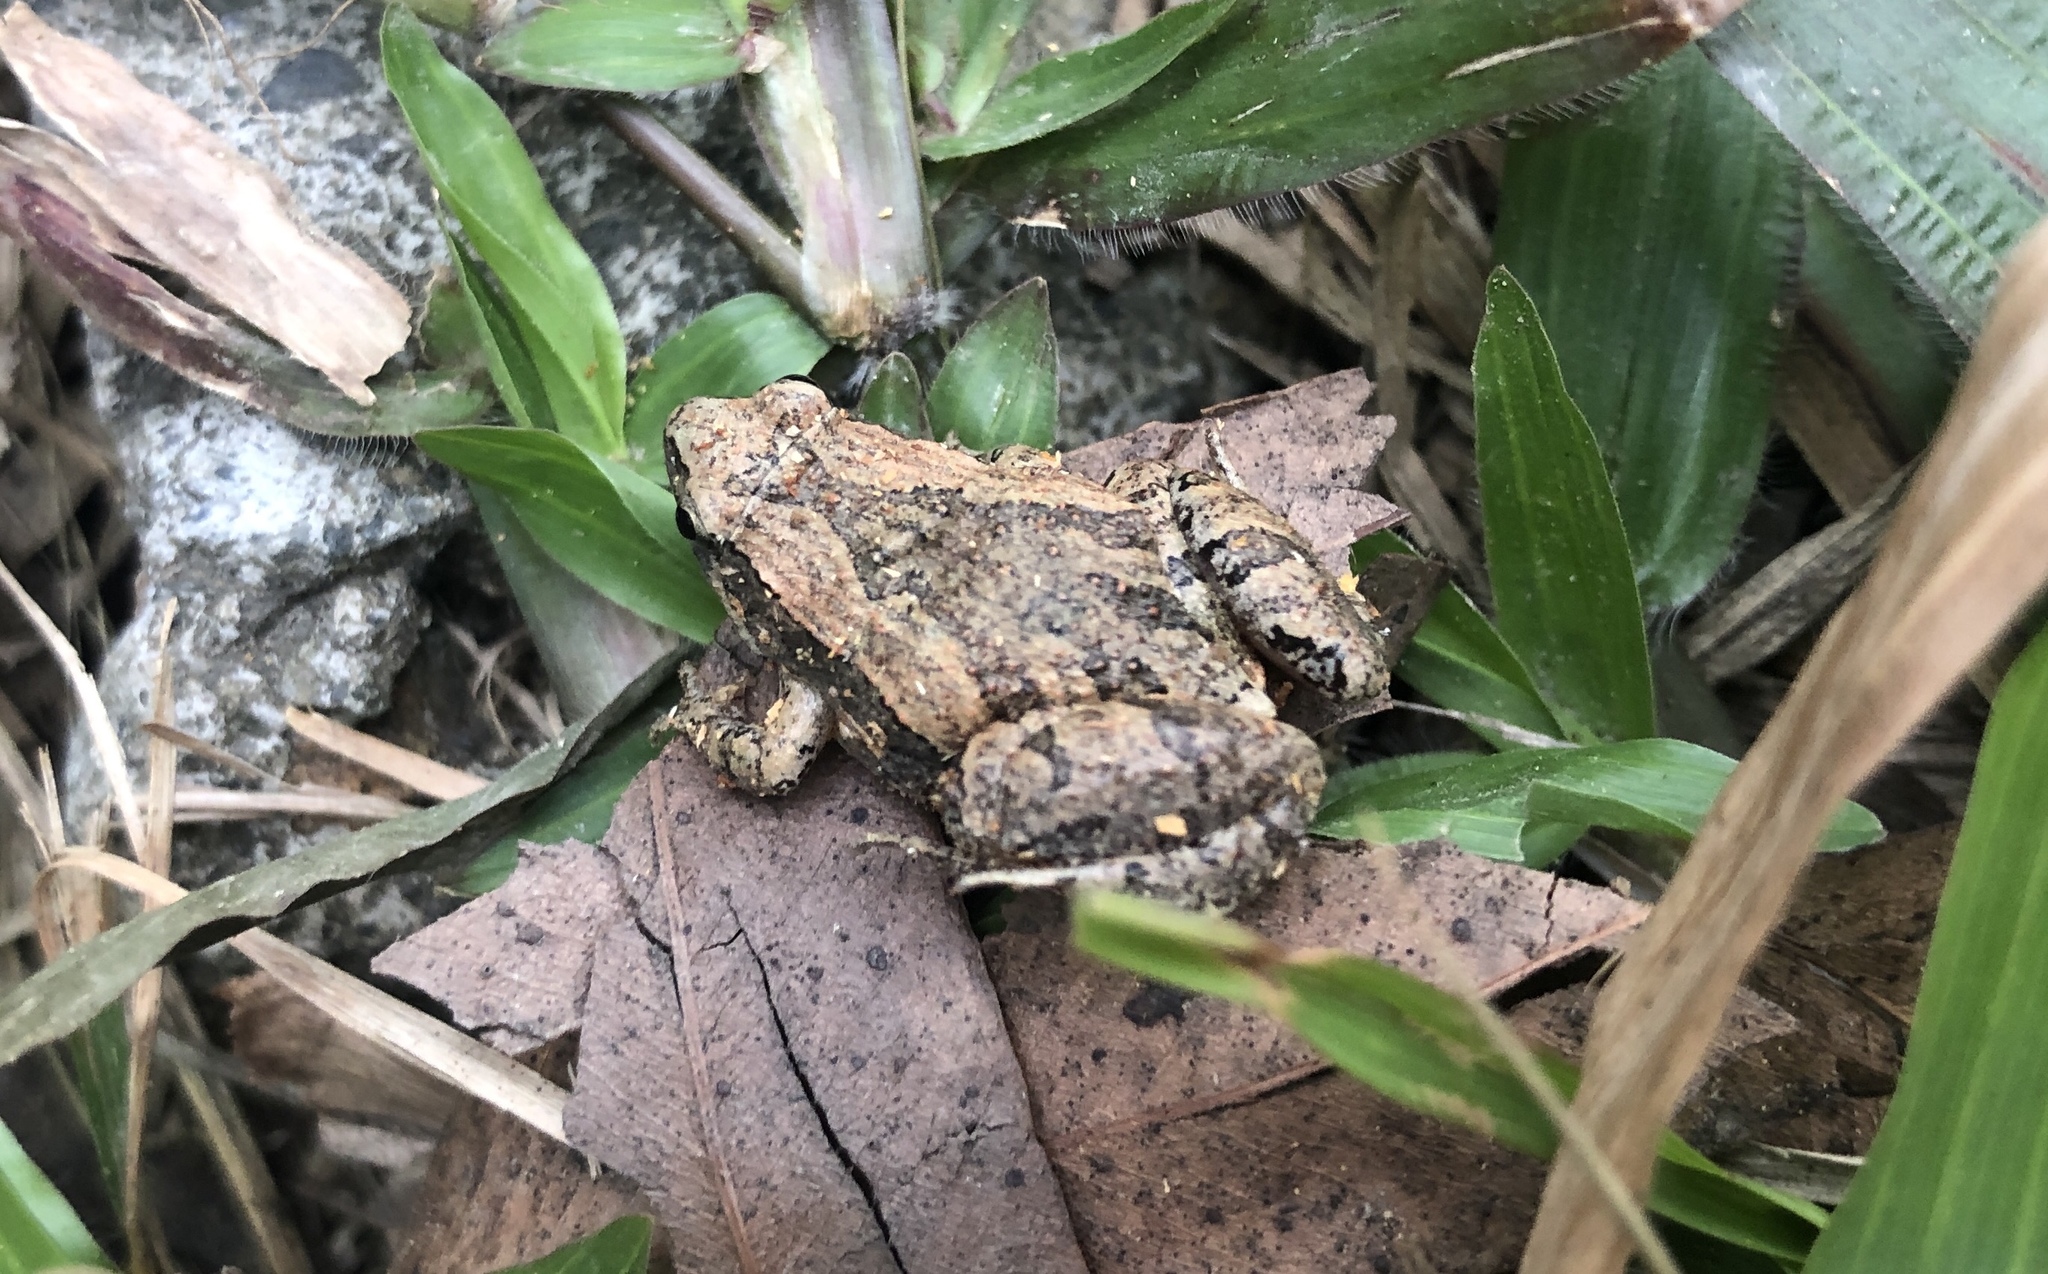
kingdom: Animalia
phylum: Chordata
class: Amphibia
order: Anura
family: Microhylidae
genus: Microhyla
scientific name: Microhyla fissipes
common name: Ornate narrow-mouthed frog
